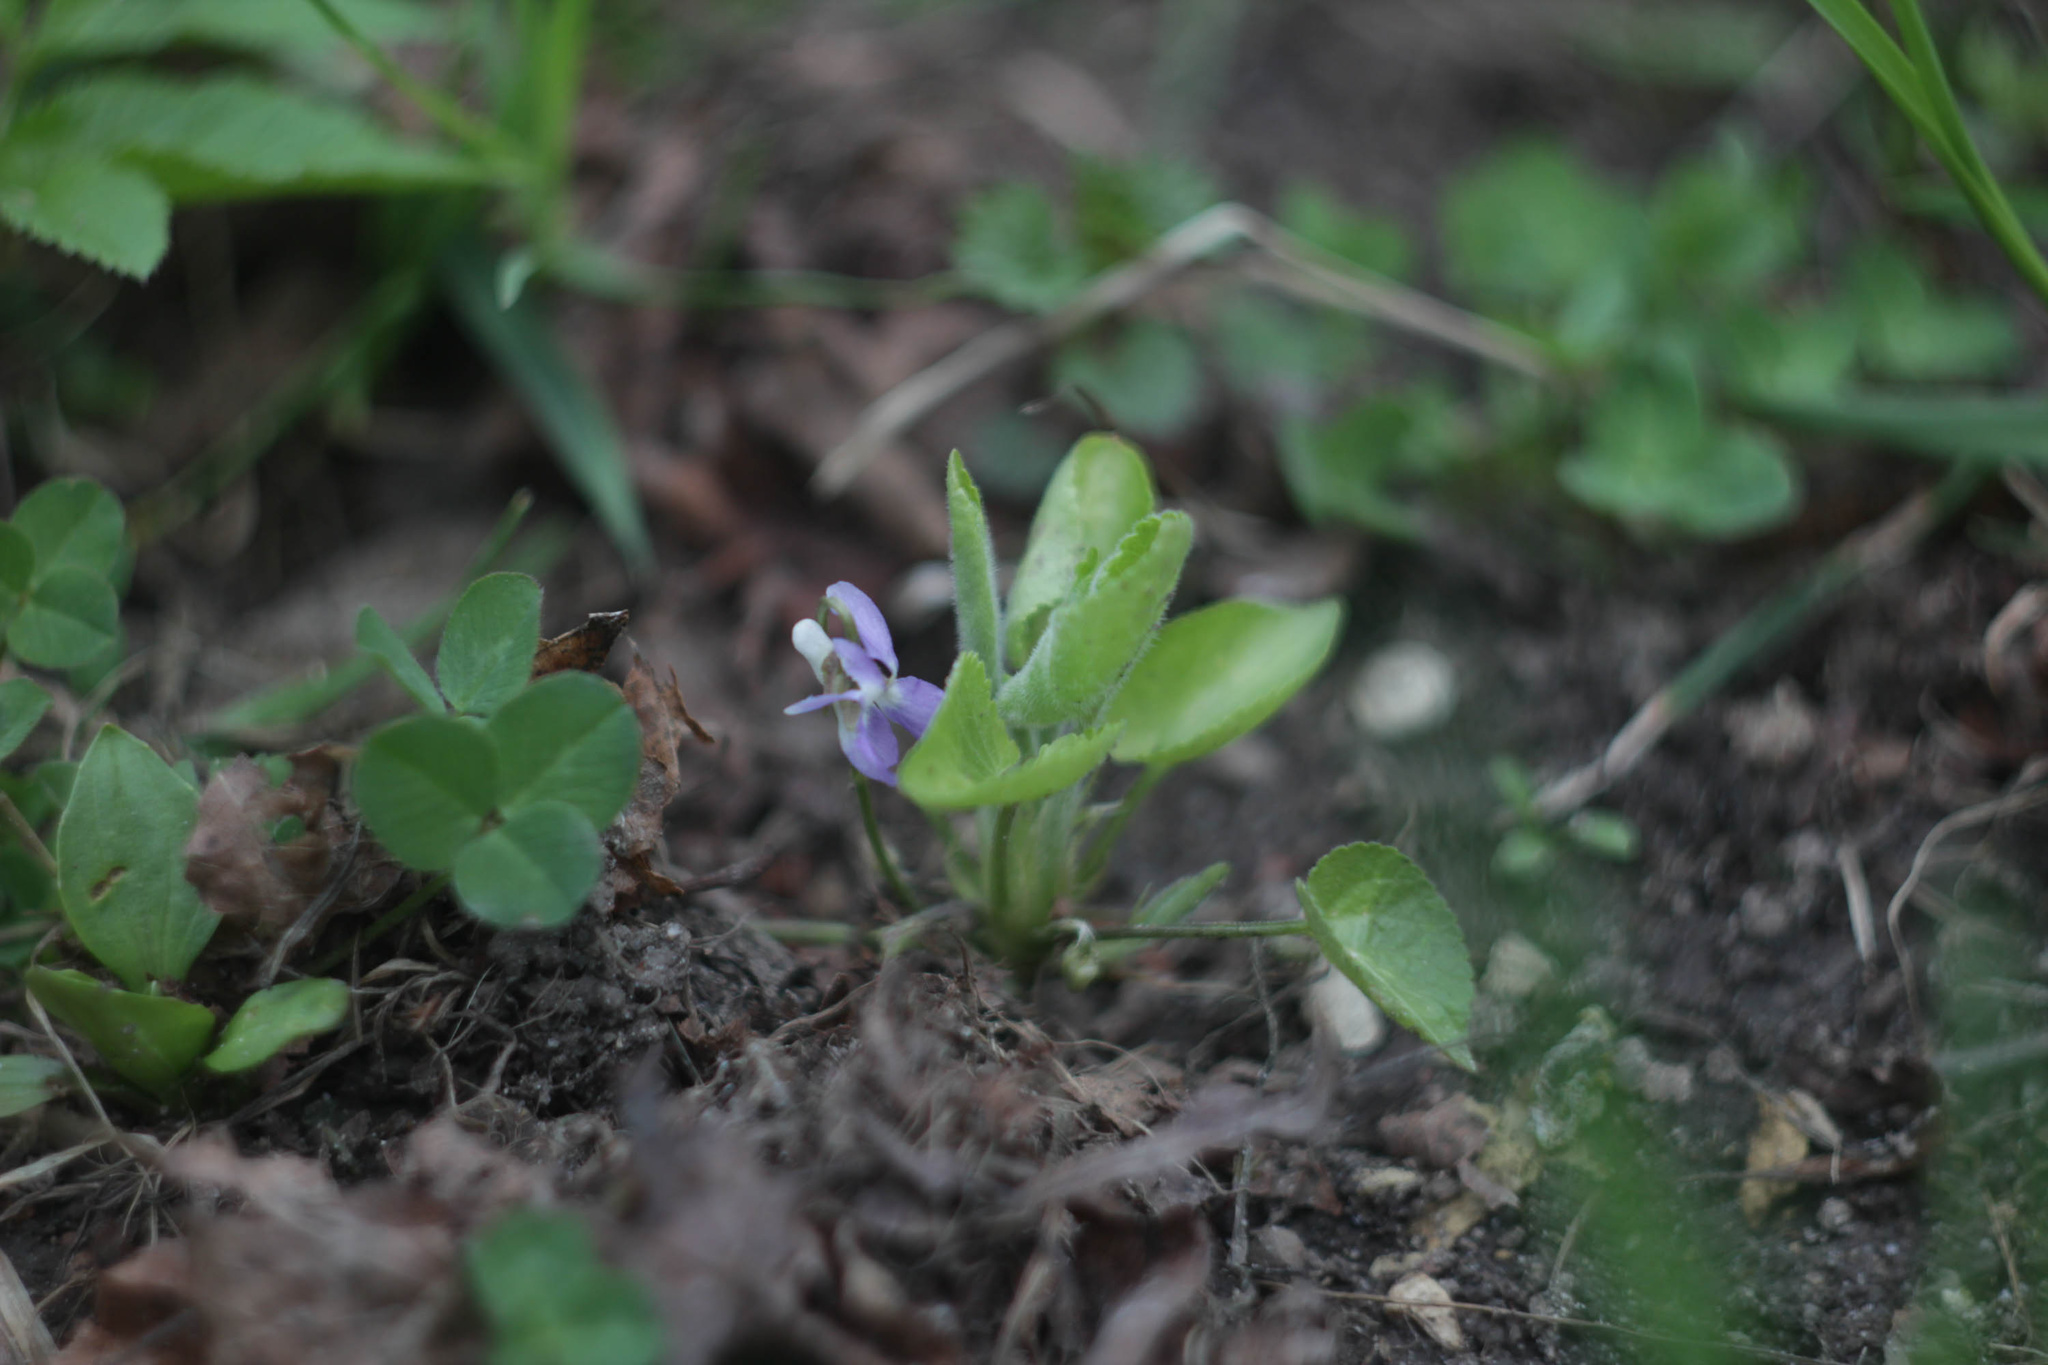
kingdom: Plantae
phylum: Tracheophyta
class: Magnoliopsida
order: Malpighiales
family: Violaceae
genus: Viola
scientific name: Viola hirta
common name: Hairy violet
